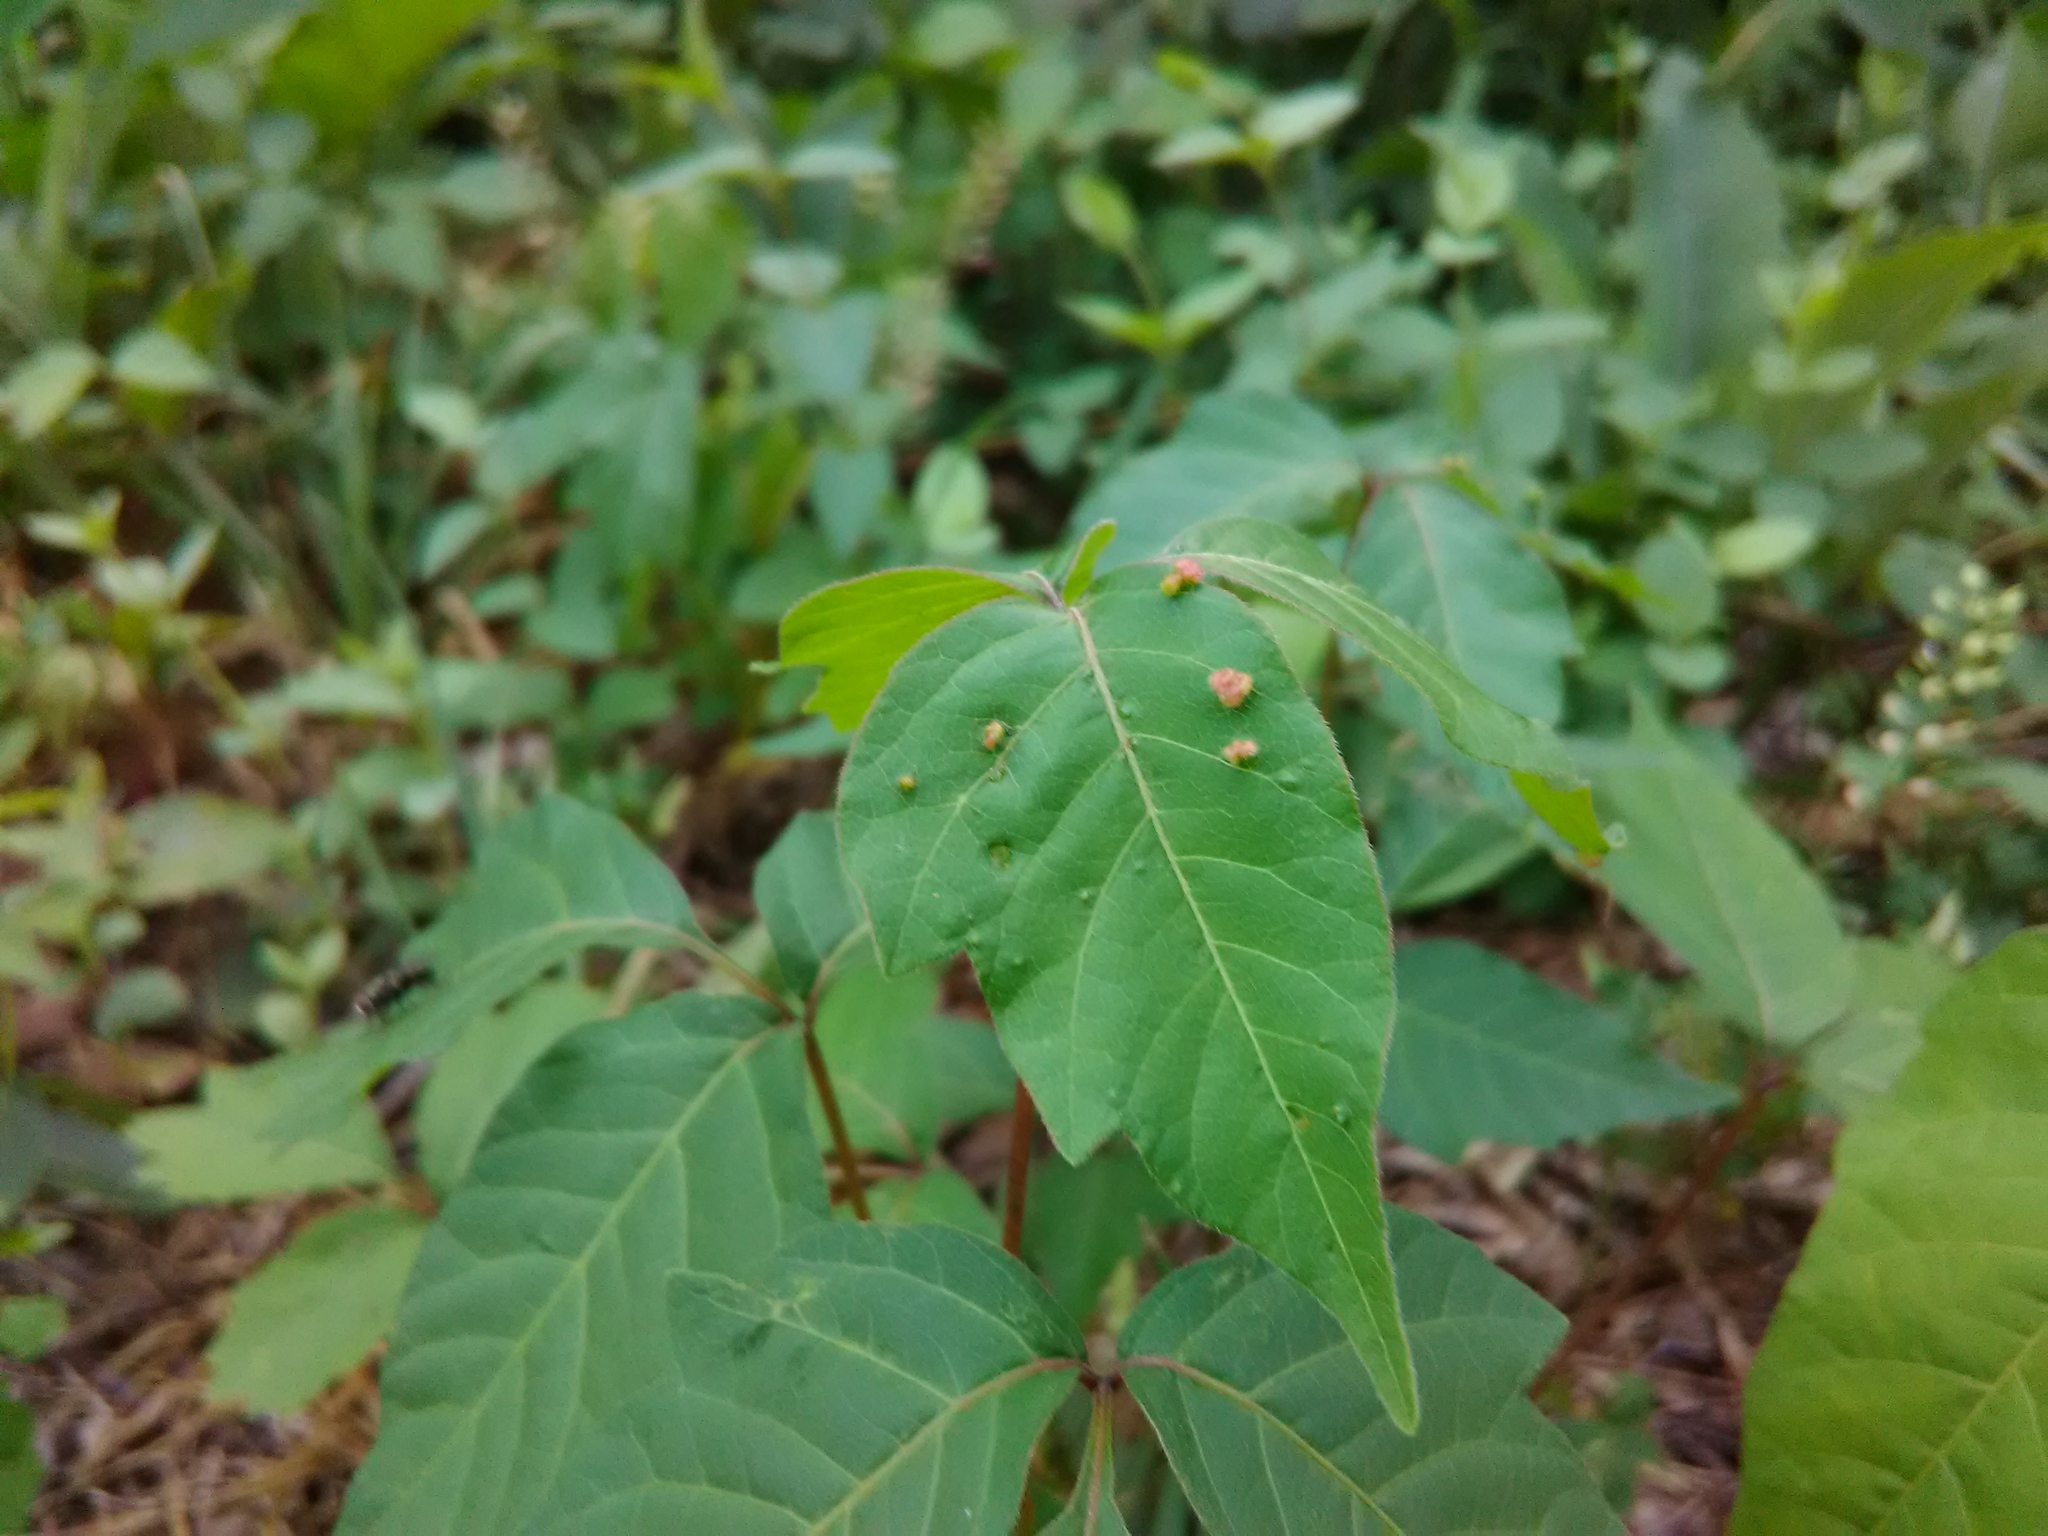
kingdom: Animalia
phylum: Arthropoda
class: Arachnida
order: Trombidiformes
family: Eriophyidae
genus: Aculops
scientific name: Aculops
